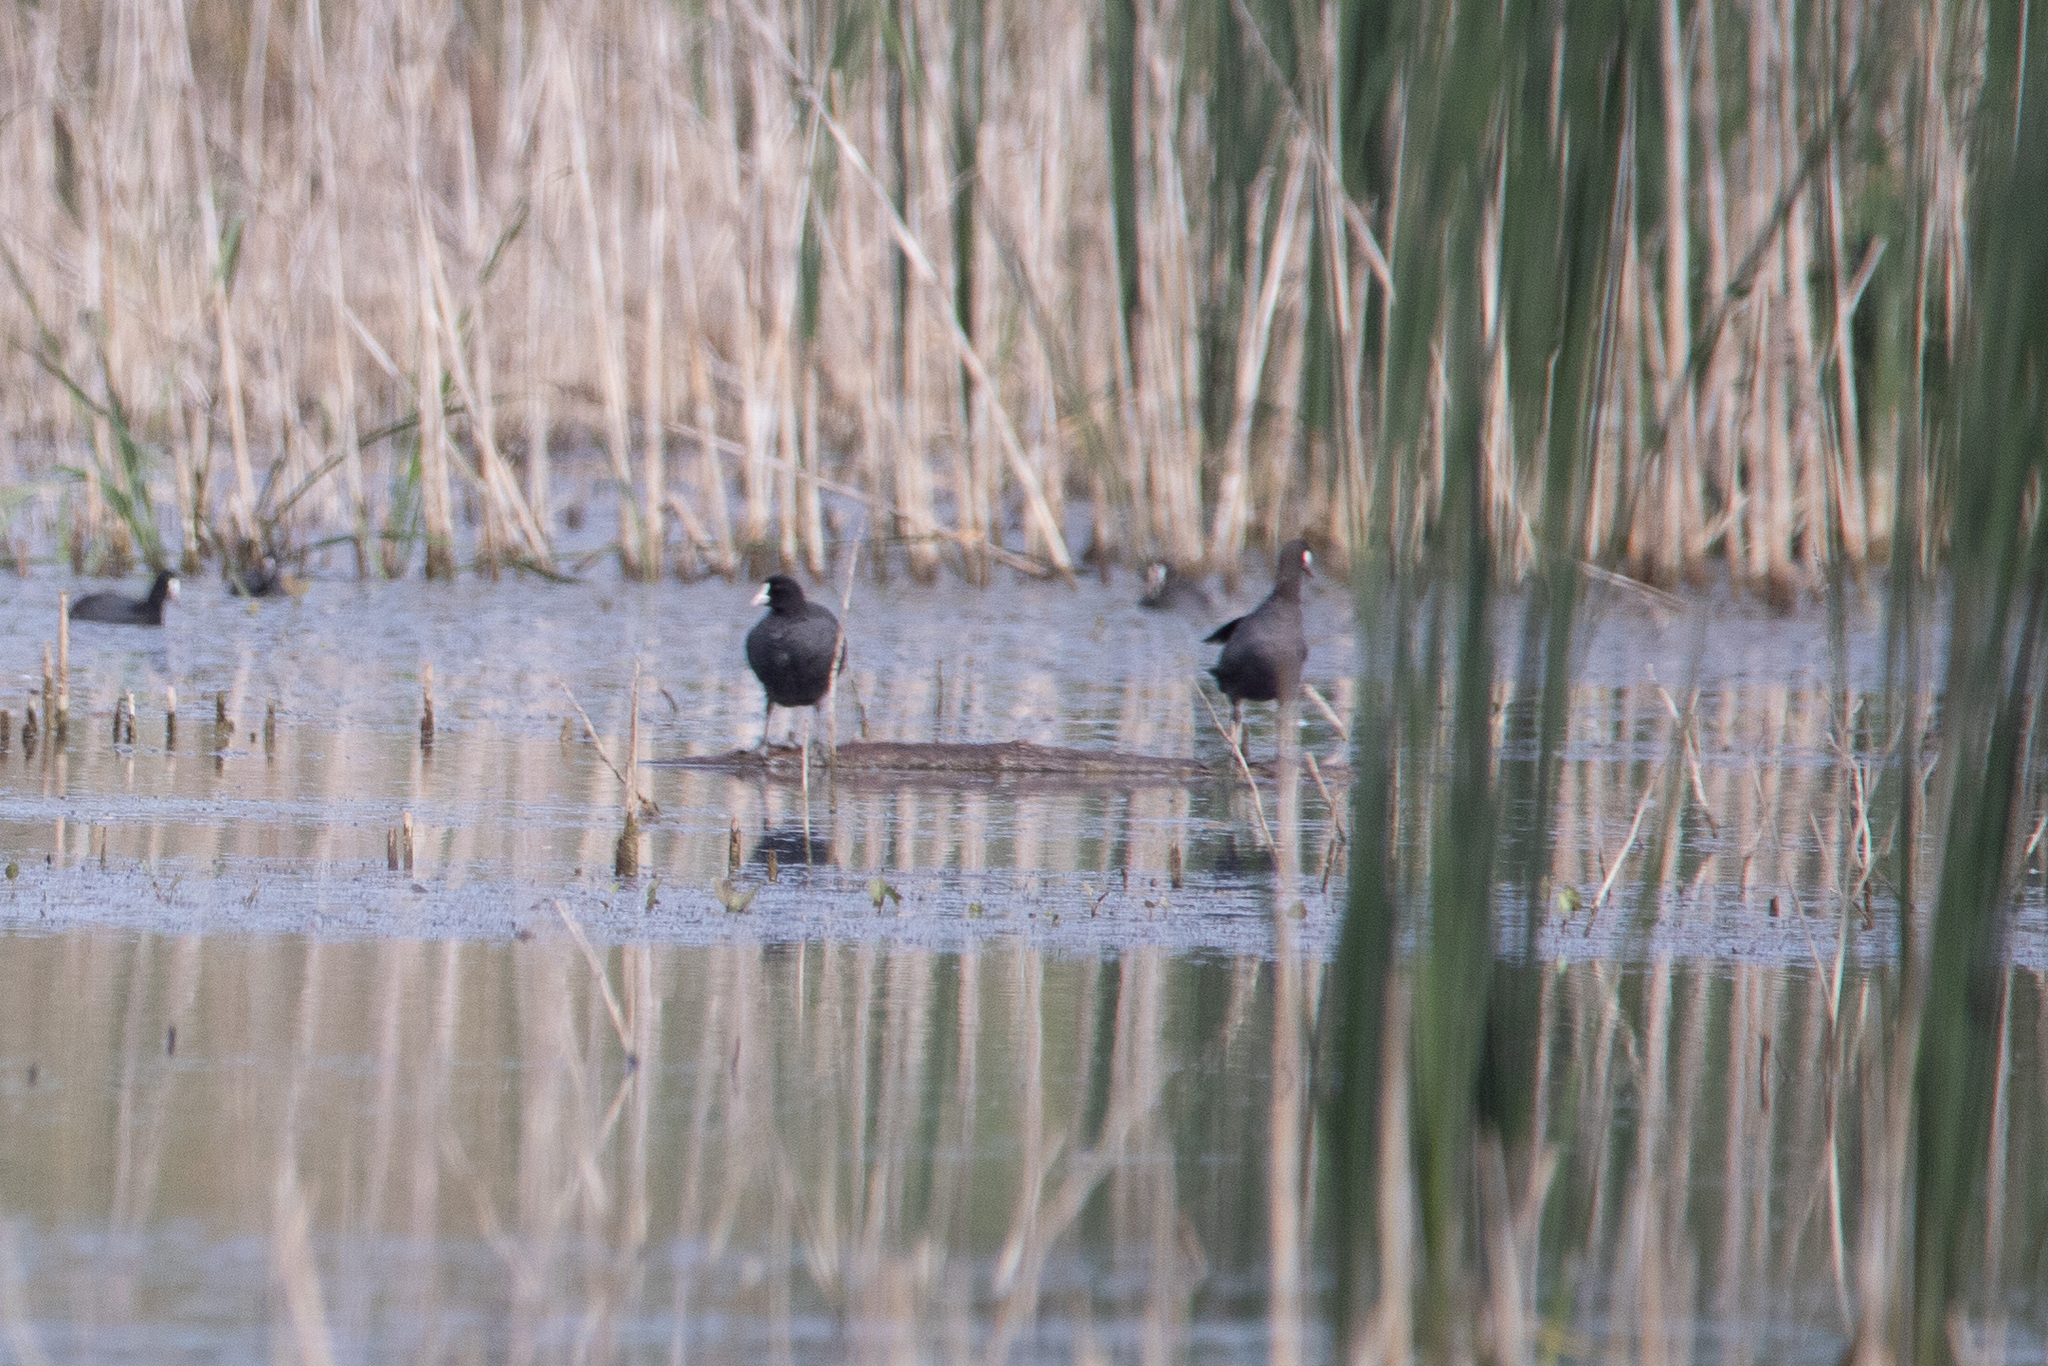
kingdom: Animalia
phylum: Chordata
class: Aves
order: Gruiformes
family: Rallidae
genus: Fulica
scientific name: Fulica atra
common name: Eurasian coot
